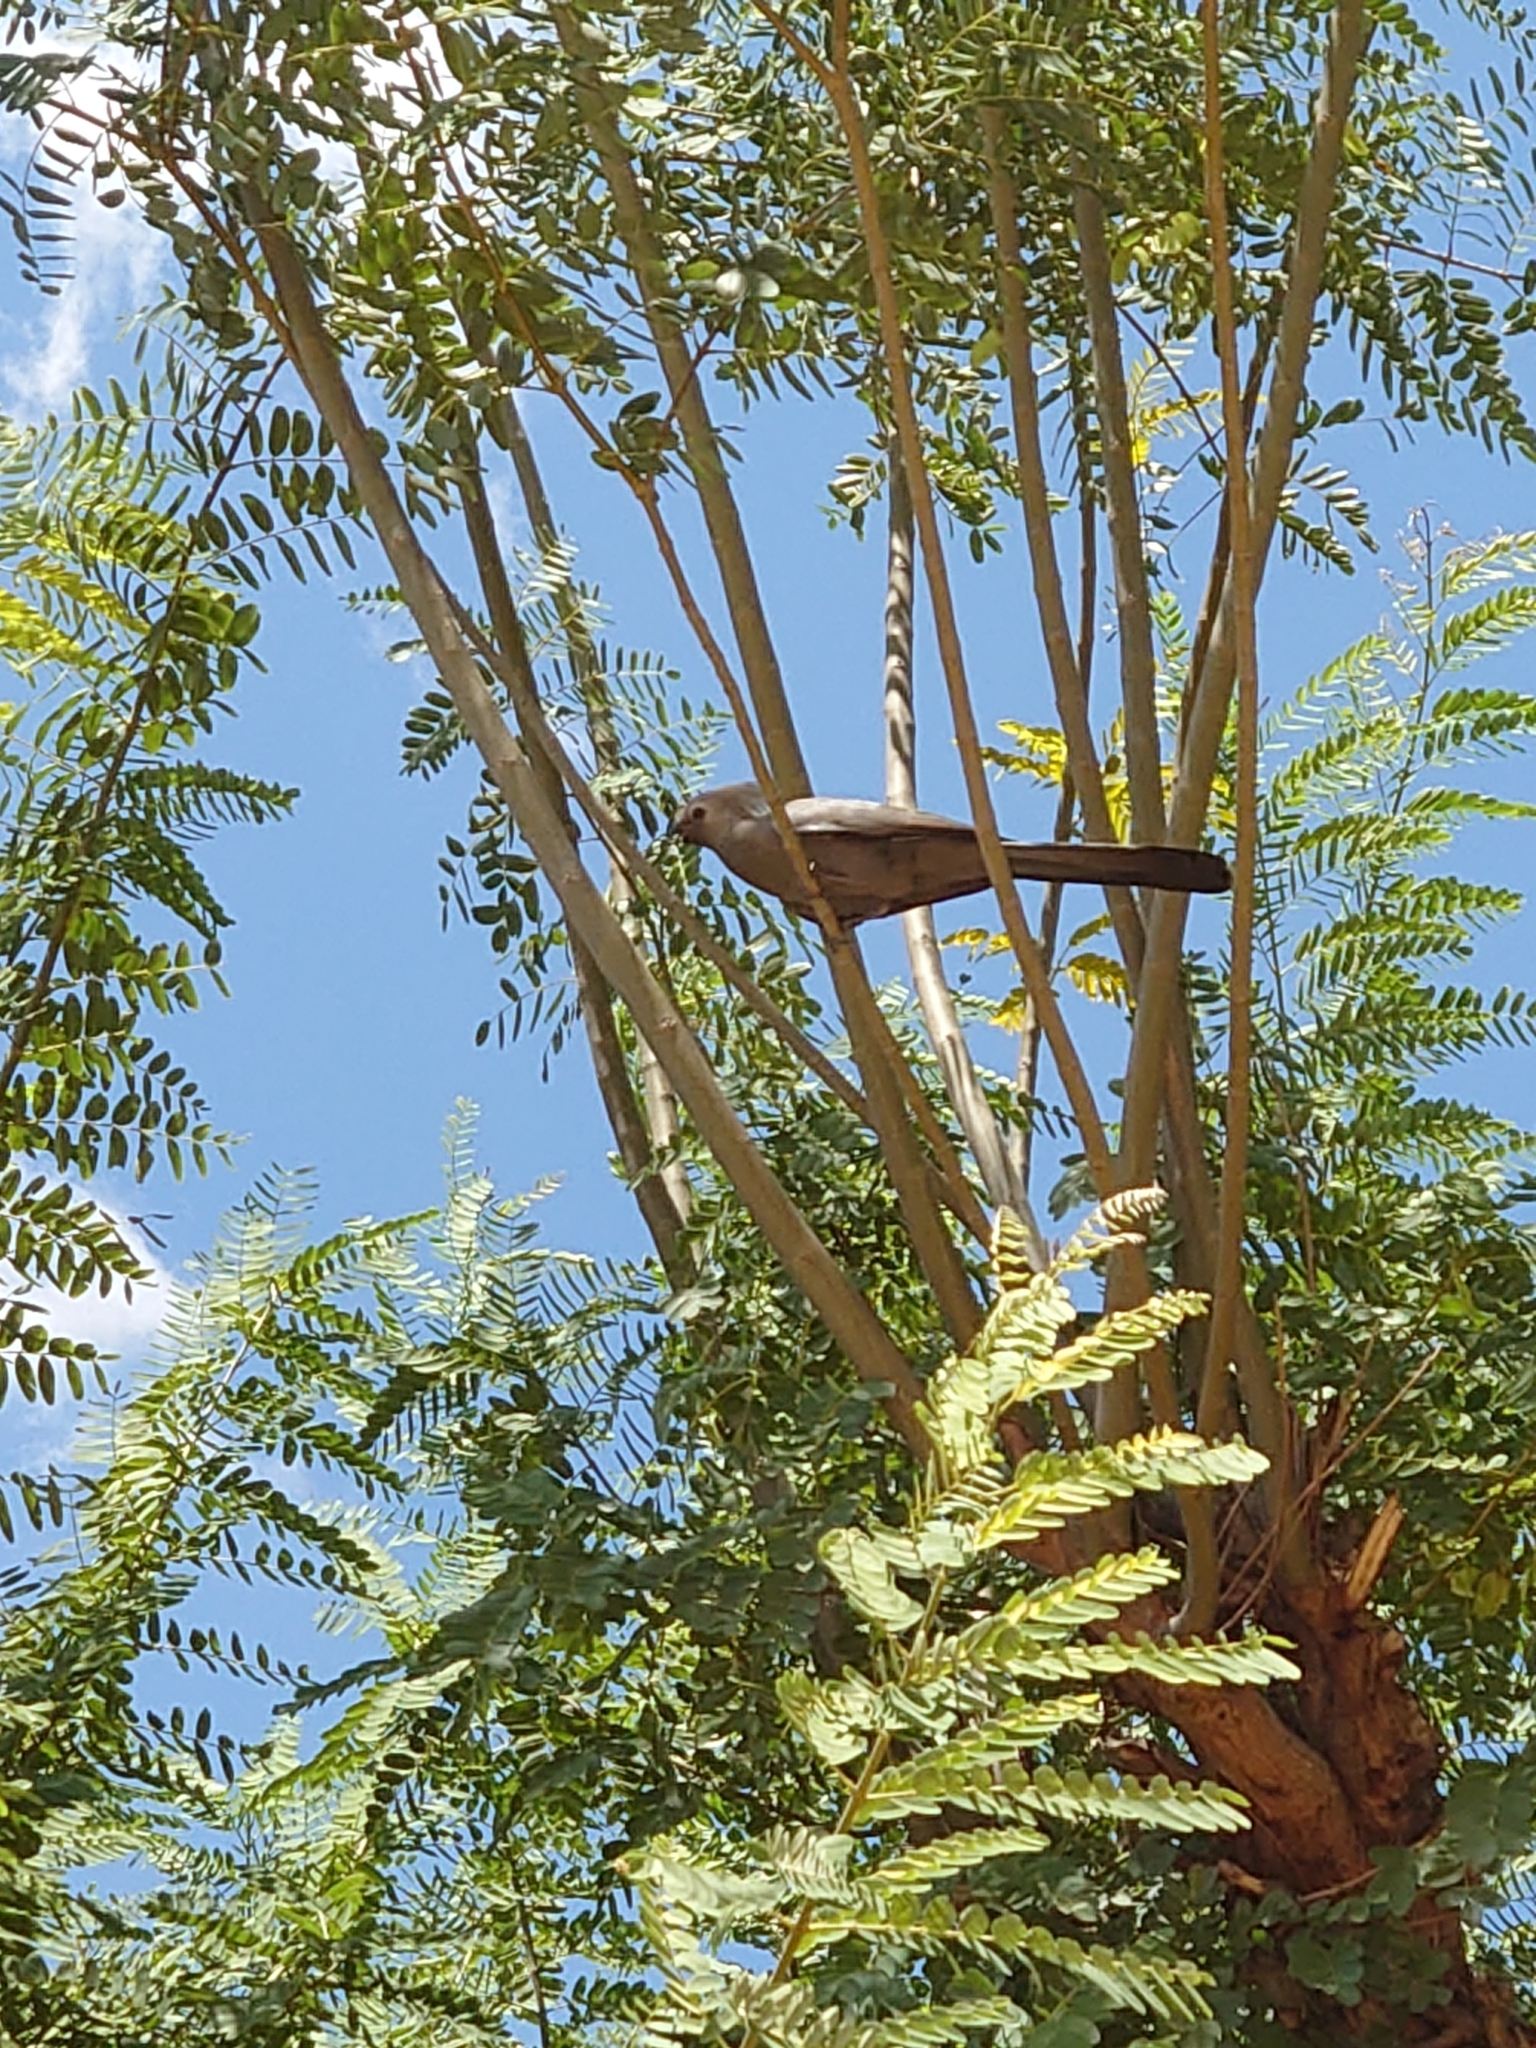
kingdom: Animalia
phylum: Chordata
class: Aves
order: Musophagiformes
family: Musophagidae
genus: Corythaixoides
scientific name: Corythaixoides concolor
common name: Grey go-away-bird
